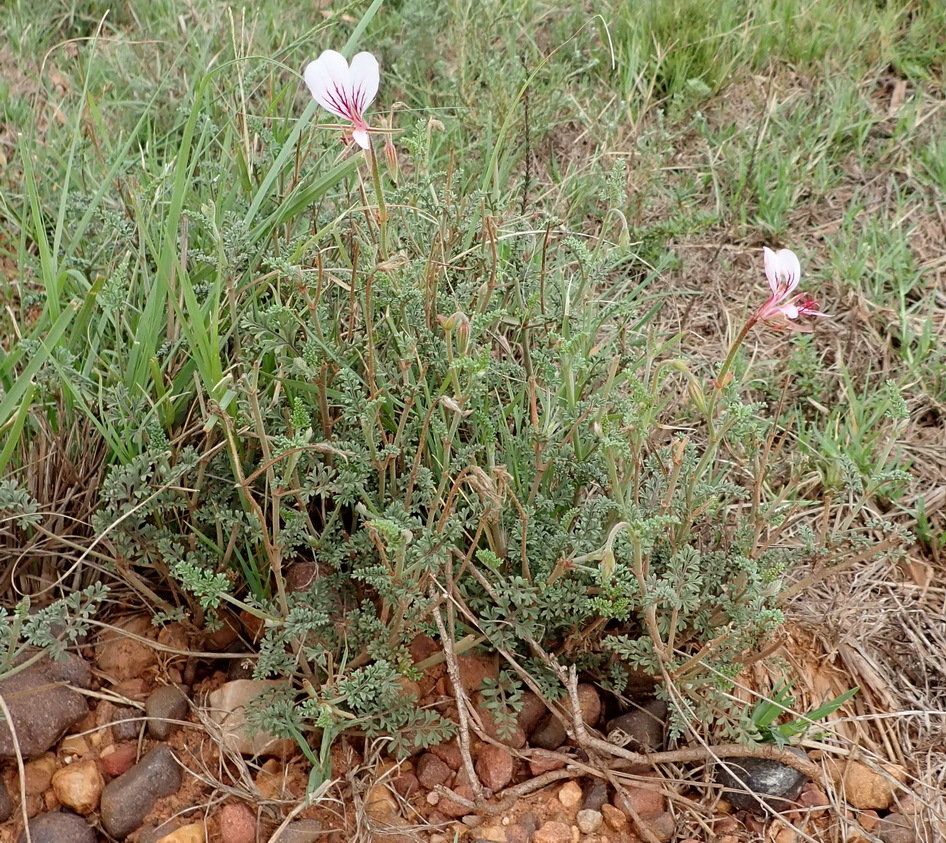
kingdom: Plantae
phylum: Tracheophyta
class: Magnoliopsida
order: Geraniales
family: Geraniaceae
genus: Pelargonium
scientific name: Pelargonium caucalifolium
